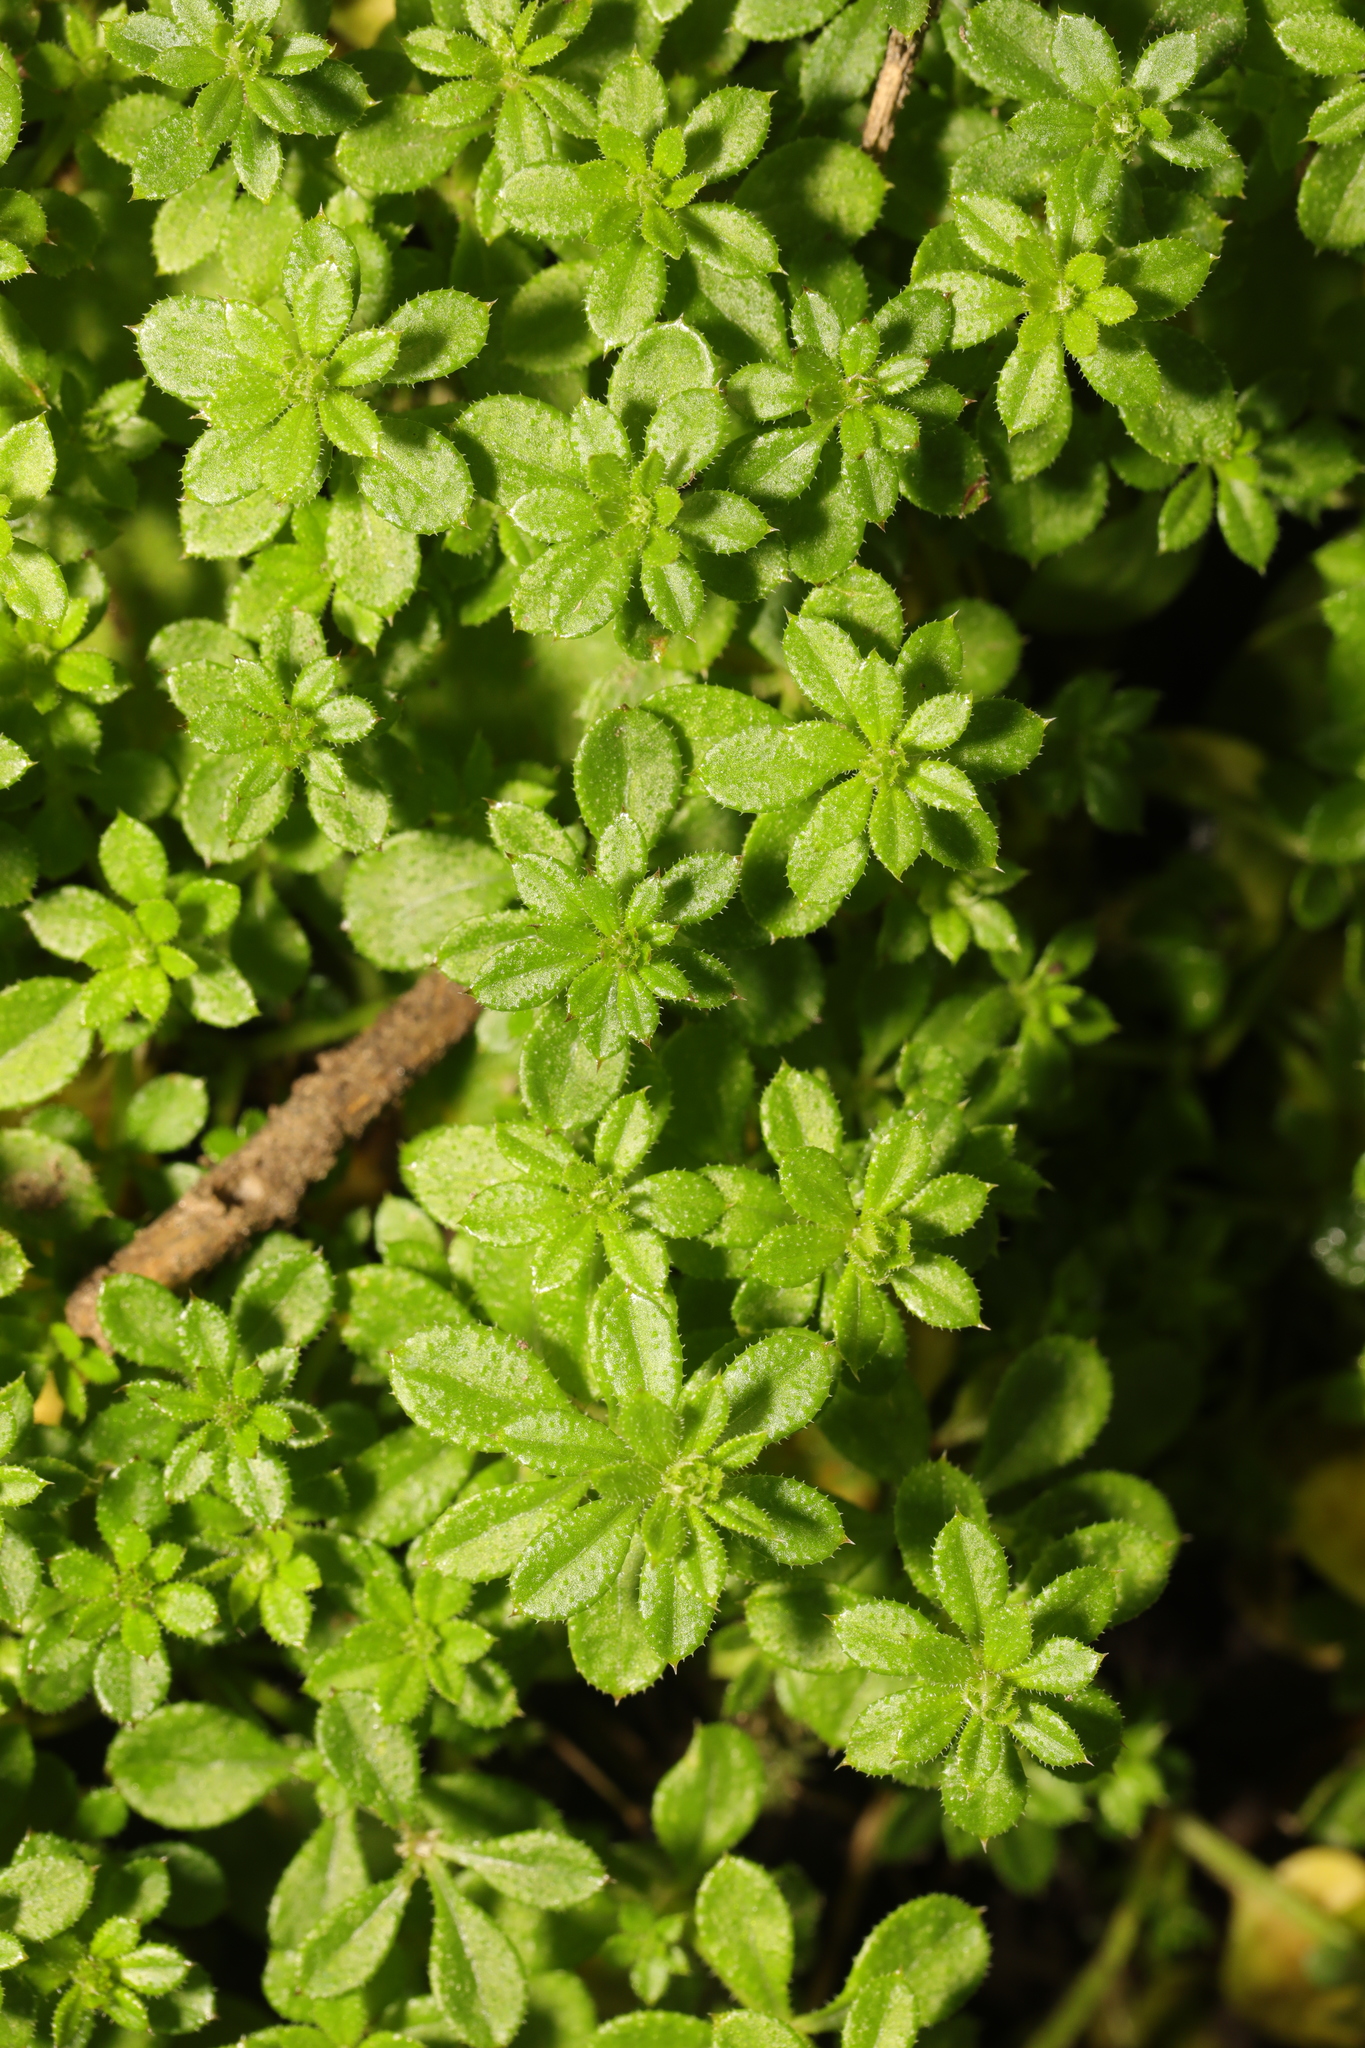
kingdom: Plantae
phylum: Tracheophyta
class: Magnoliopsida
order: Gentianales
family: Rubiaceae
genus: Galium
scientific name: Galium aparine
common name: Cleavers
